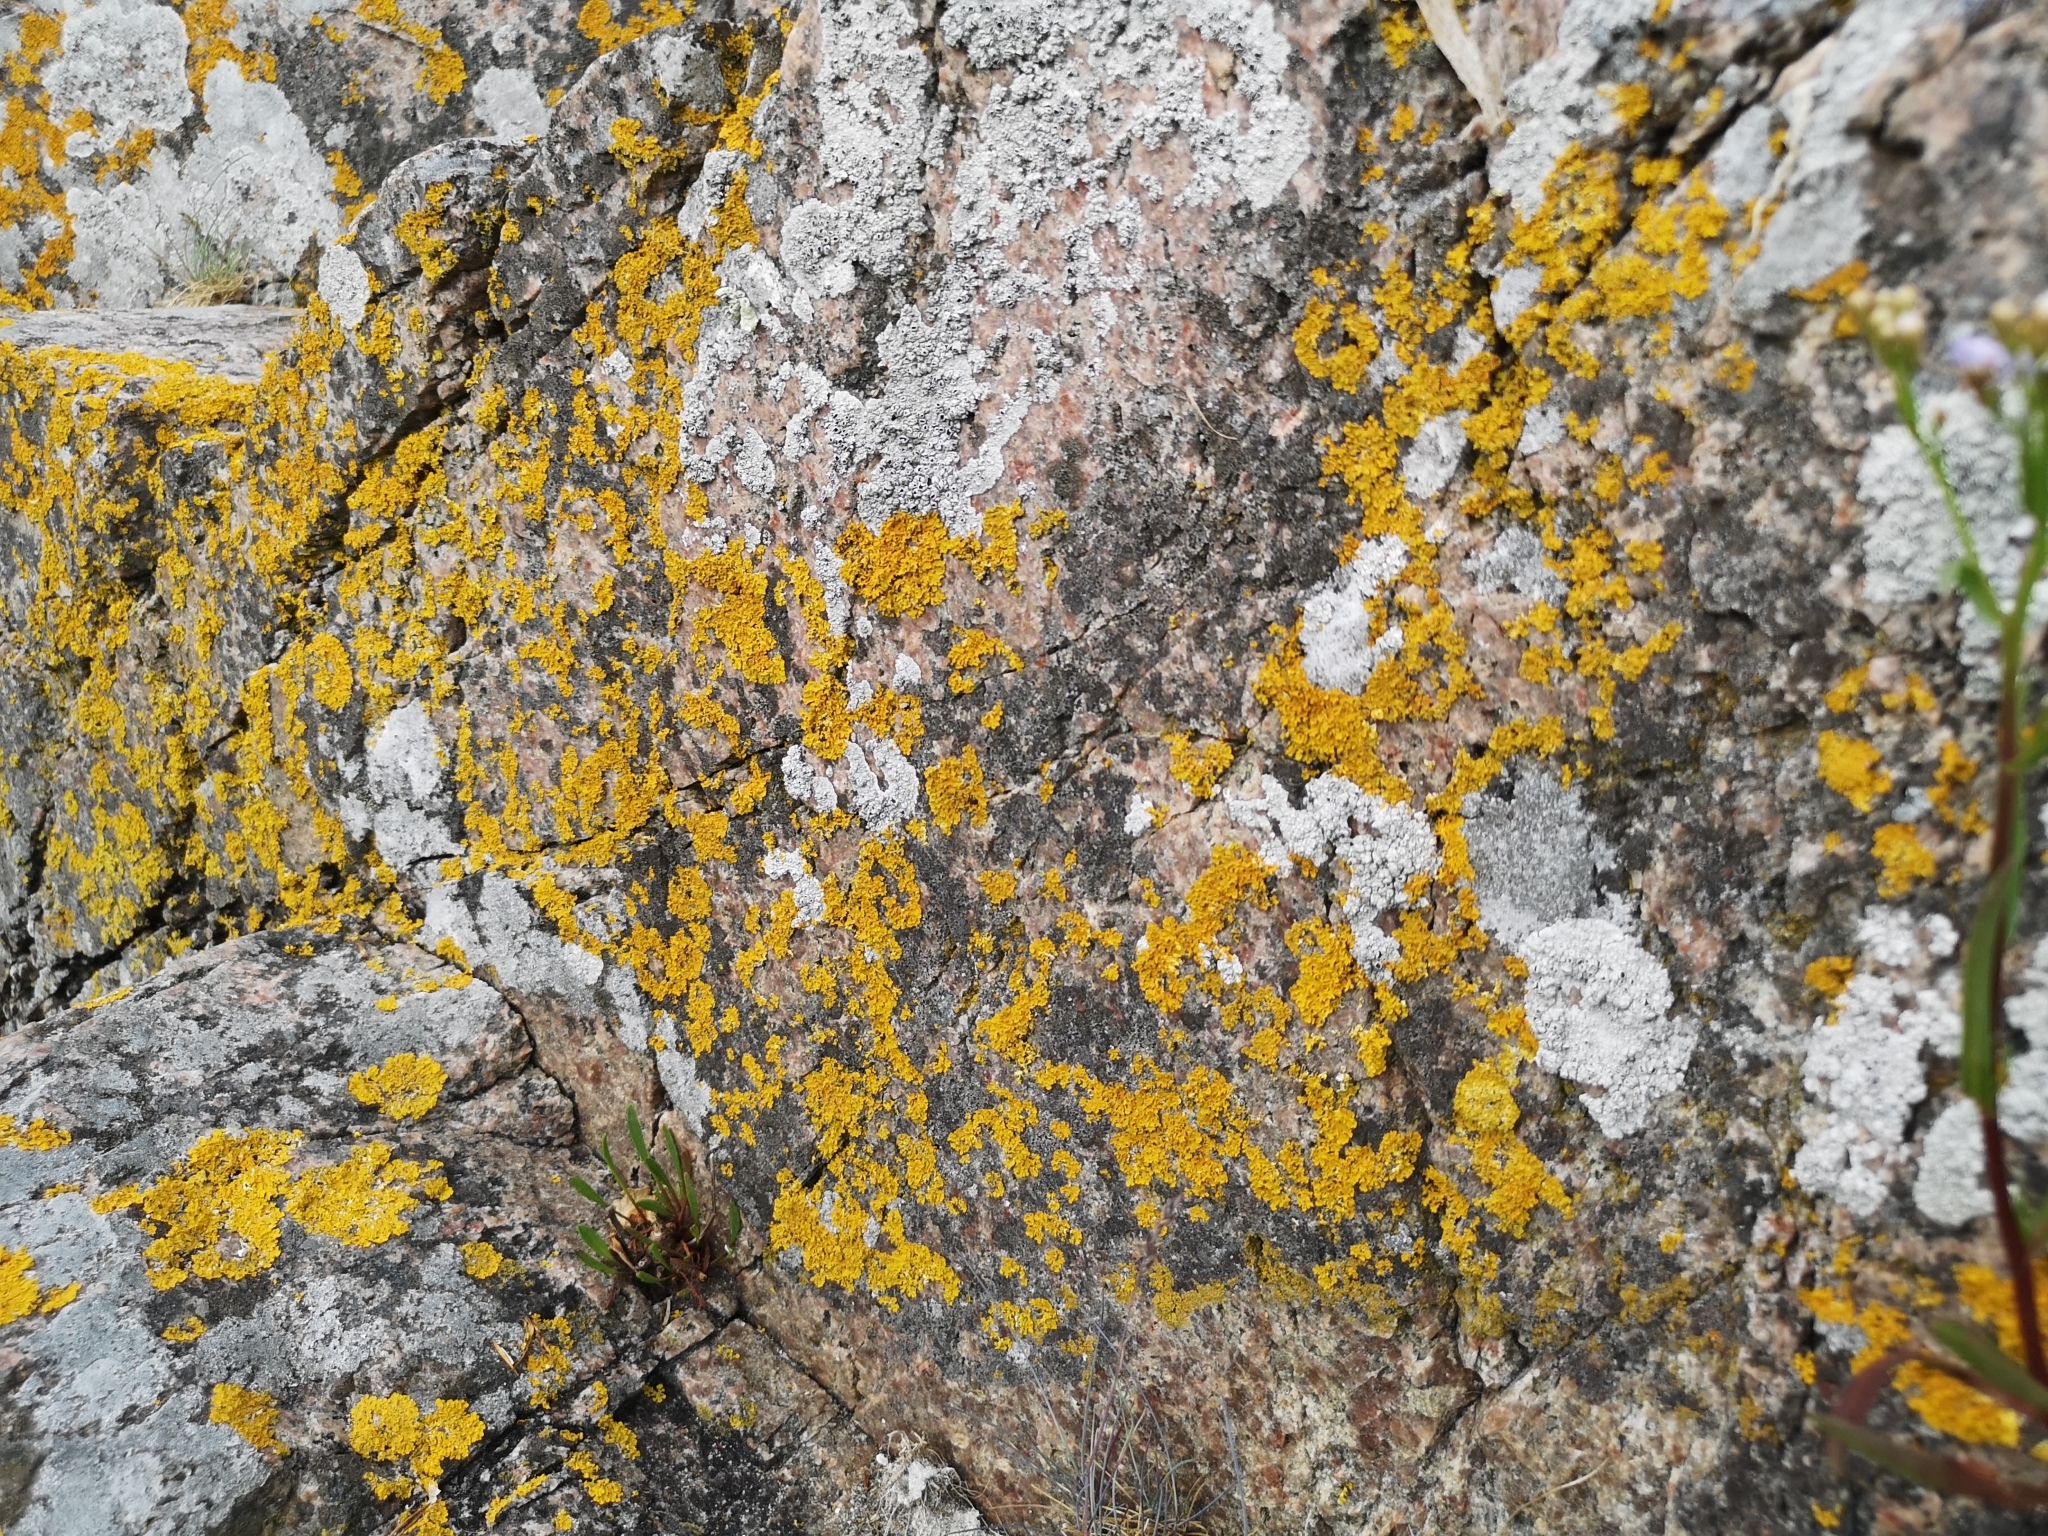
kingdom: Fungi
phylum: Ascomycota
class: Lecanoromycetes
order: Teloschistales
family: Teloschistaceae
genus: Xanthoria
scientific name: Xanthoria parietina
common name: Common orange lichen
